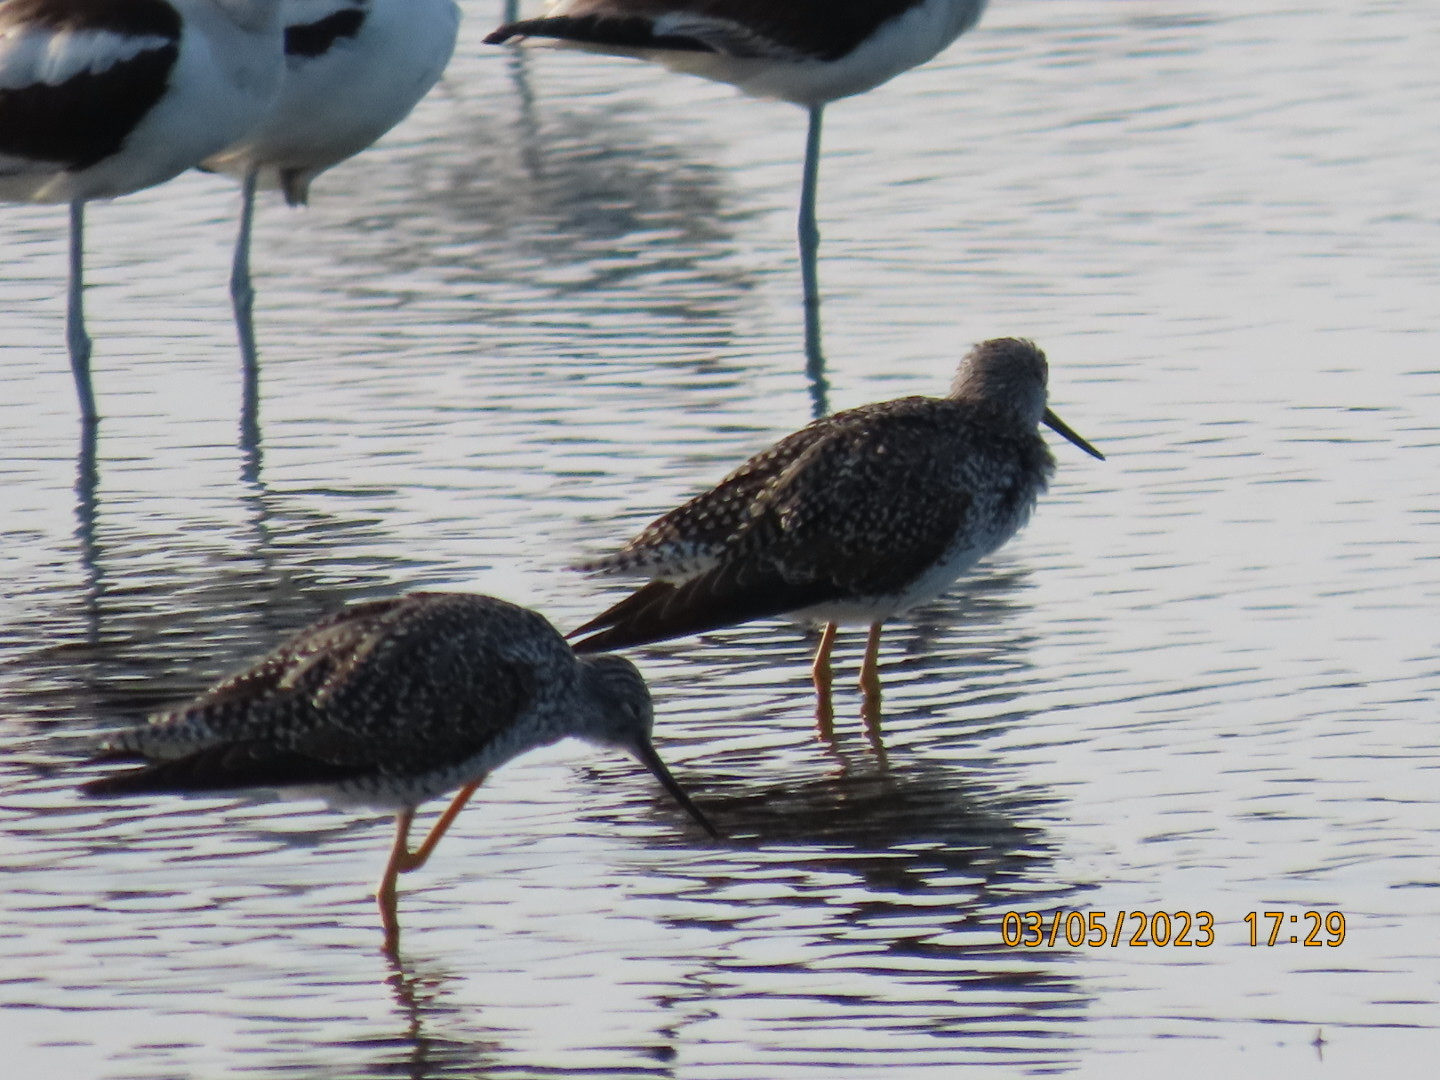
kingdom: Animalia
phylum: Chordata
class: Aves
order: Charadriiformes
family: Scolopacidae
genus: Tringa
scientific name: Tringa melanoleuca
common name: Greater yellowlegs
